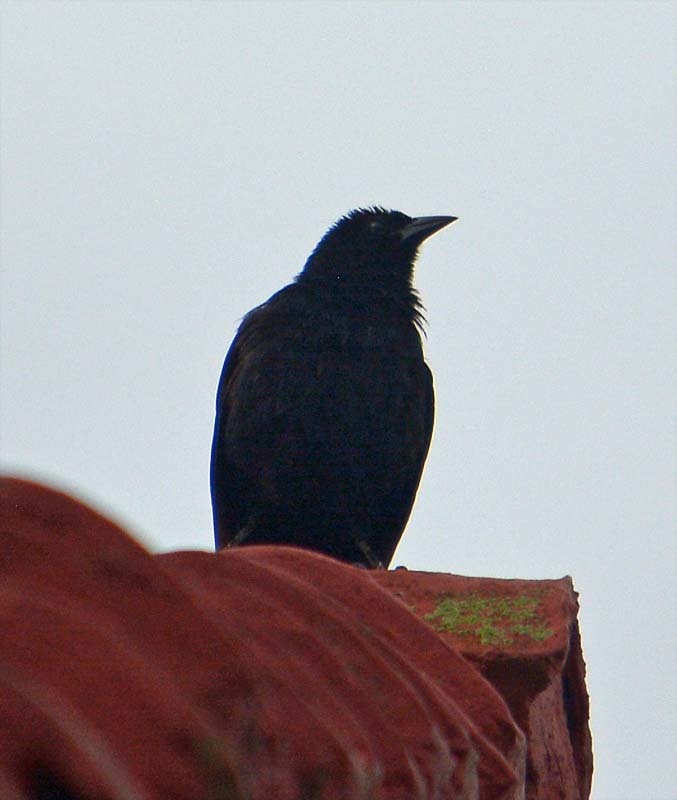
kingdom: Animalia
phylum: Chordata
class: Aves
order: Passeriformes
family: Icteridae
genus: Dives
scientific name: Dives dives
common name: Melodious blackbird
